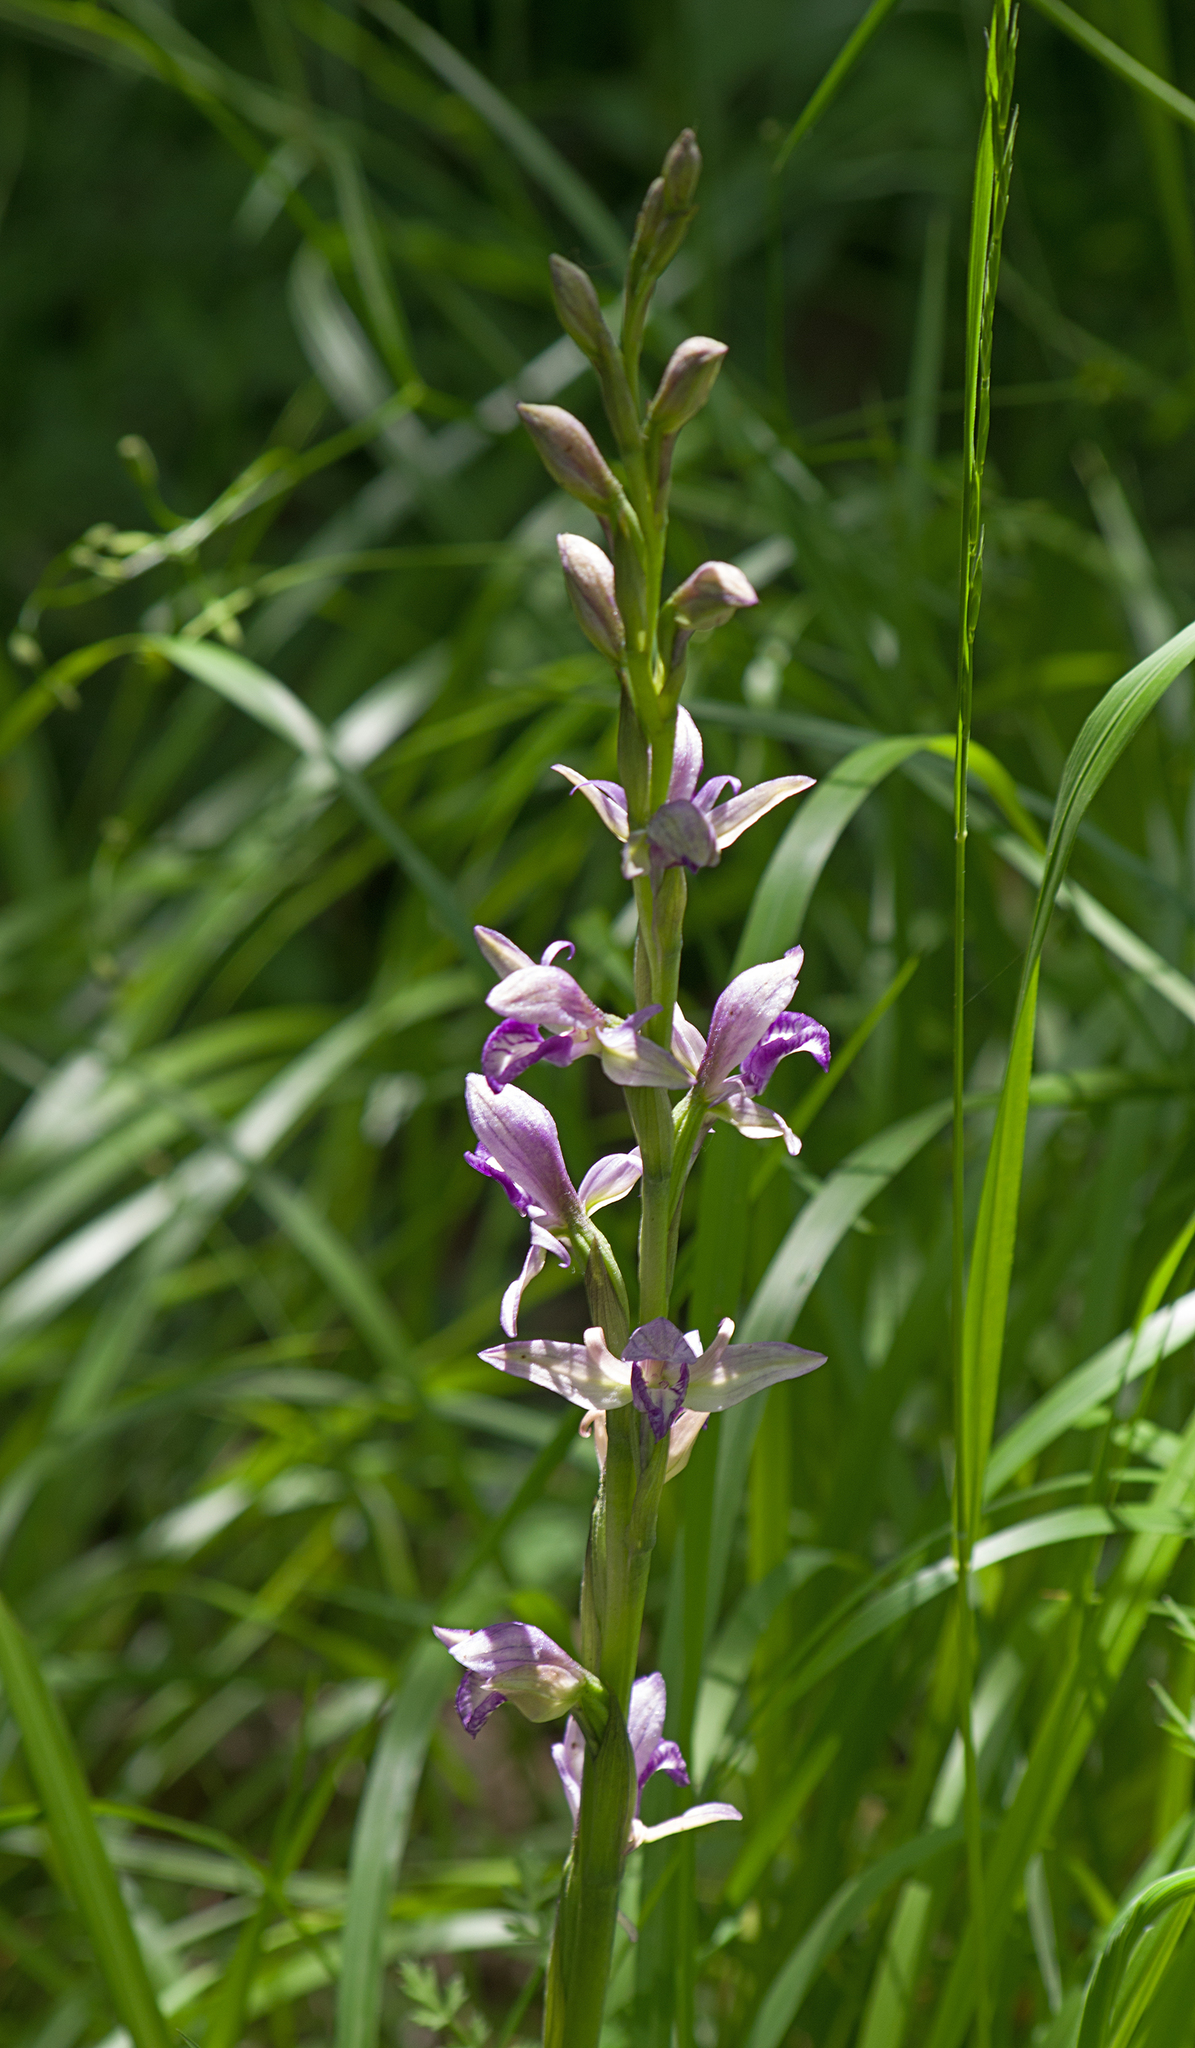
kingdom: Plantae
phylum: Tracheophyta
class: Liliopsida
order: Asparagales
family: Orchidaceae
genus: Limodorum
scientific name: Limodorum abortivum
